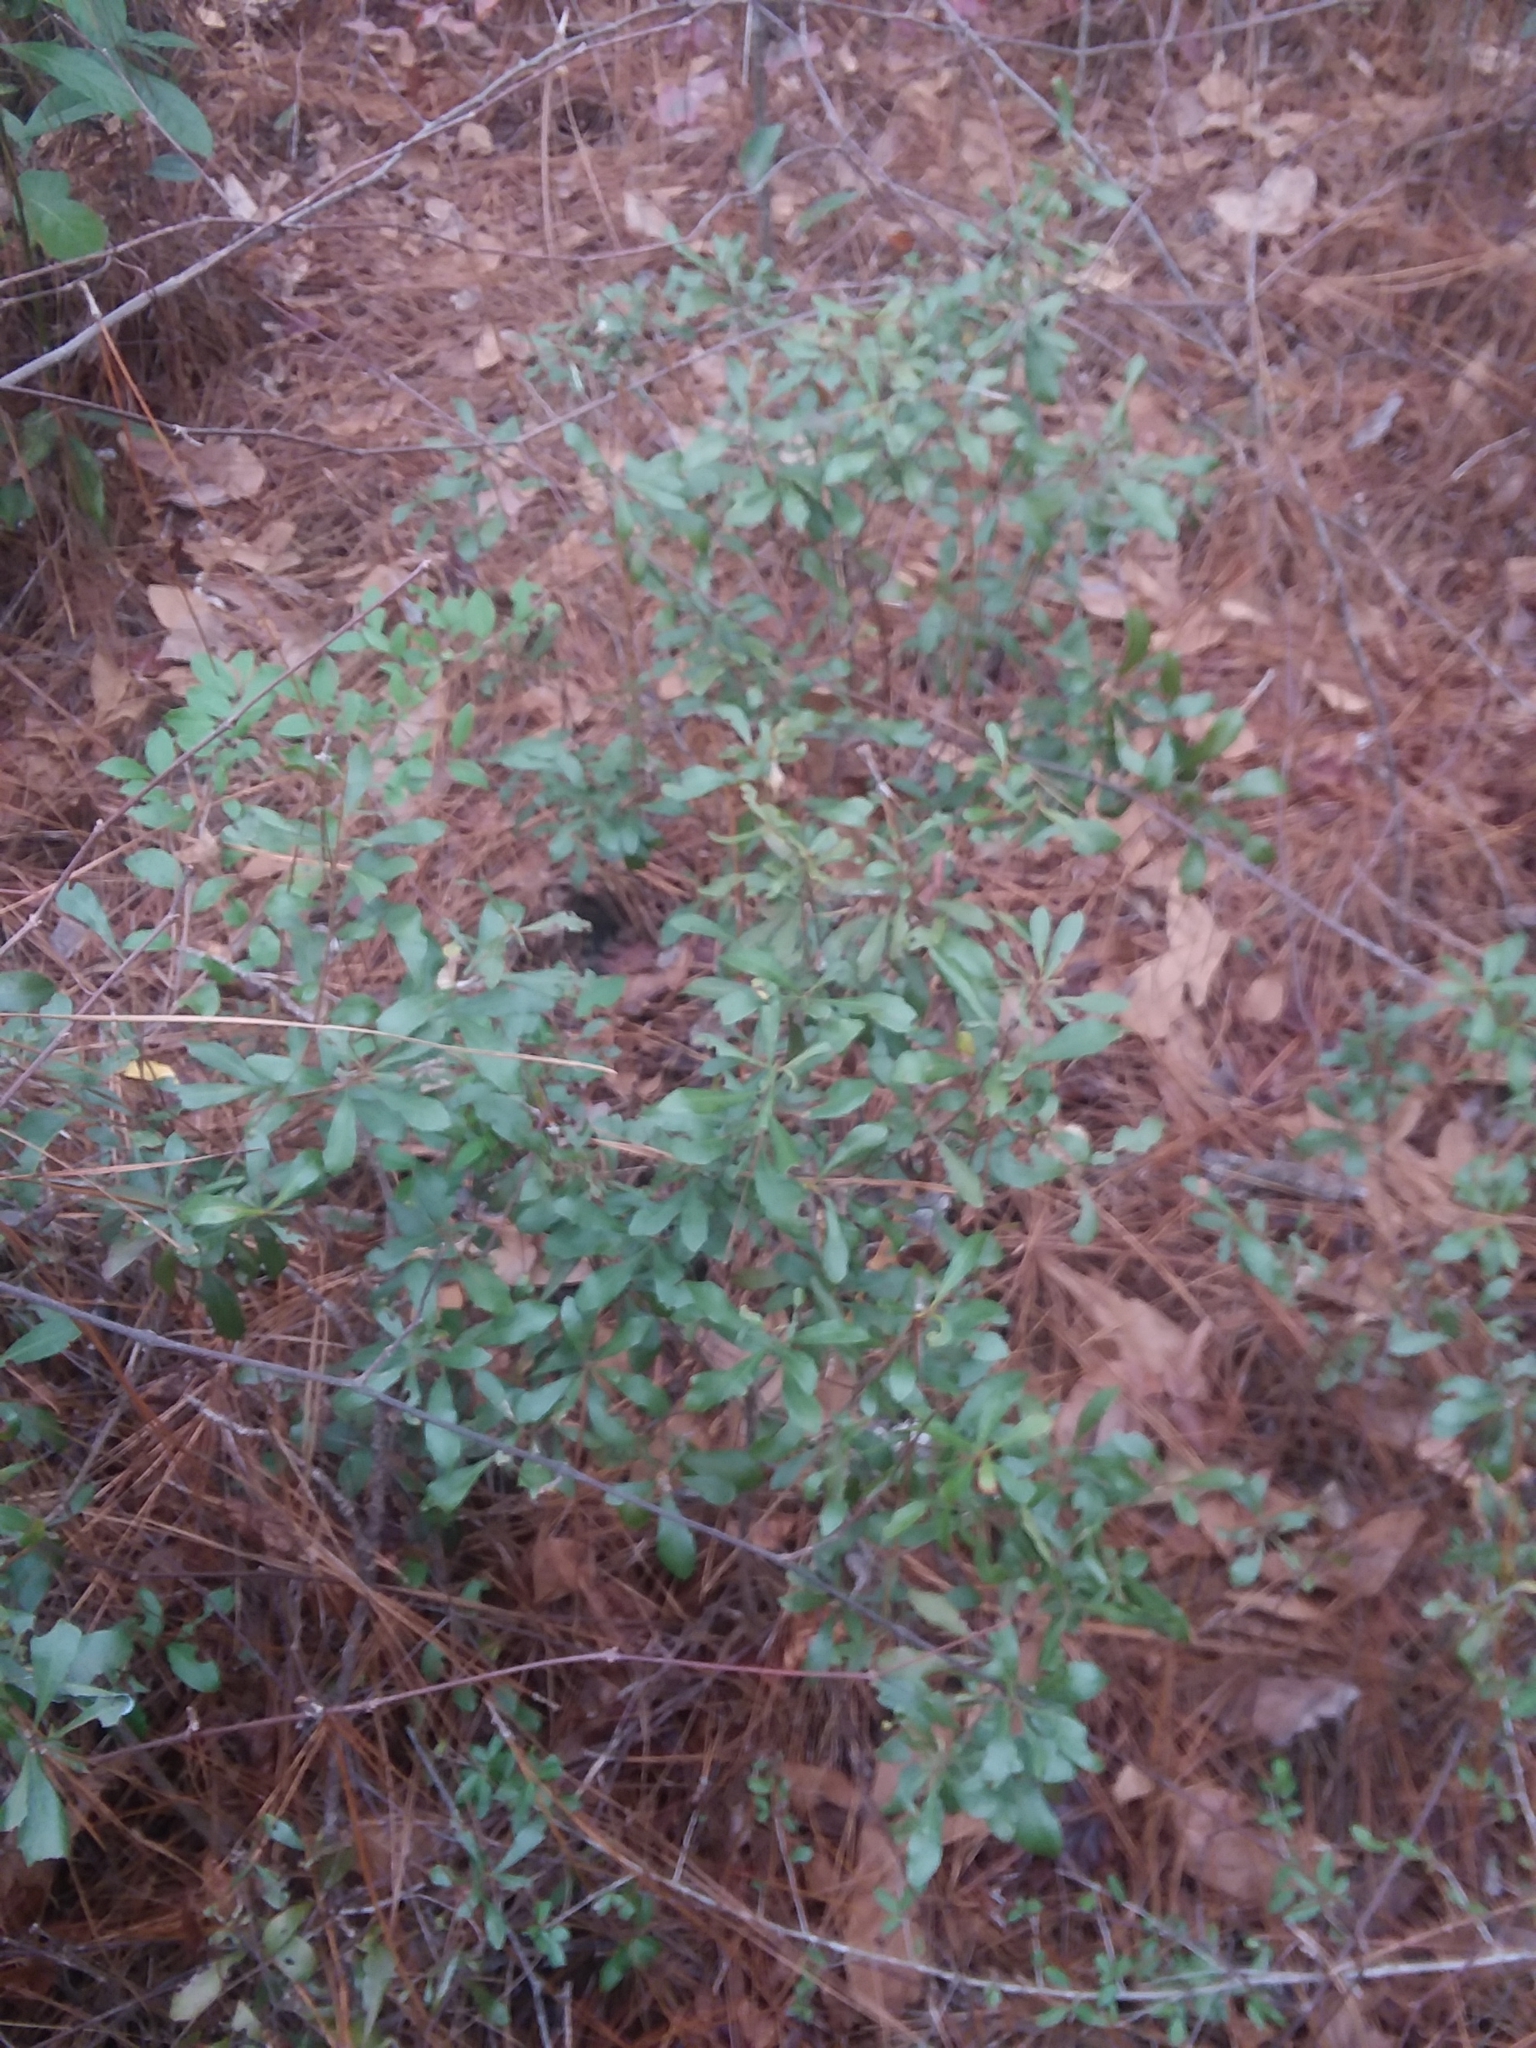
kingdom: Plantae
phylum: Tracheophyta
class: Magnoliopsida
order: Fagales
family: Myricaceae
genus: Morella
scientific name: Morella cerifera
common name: Wax myrtle
